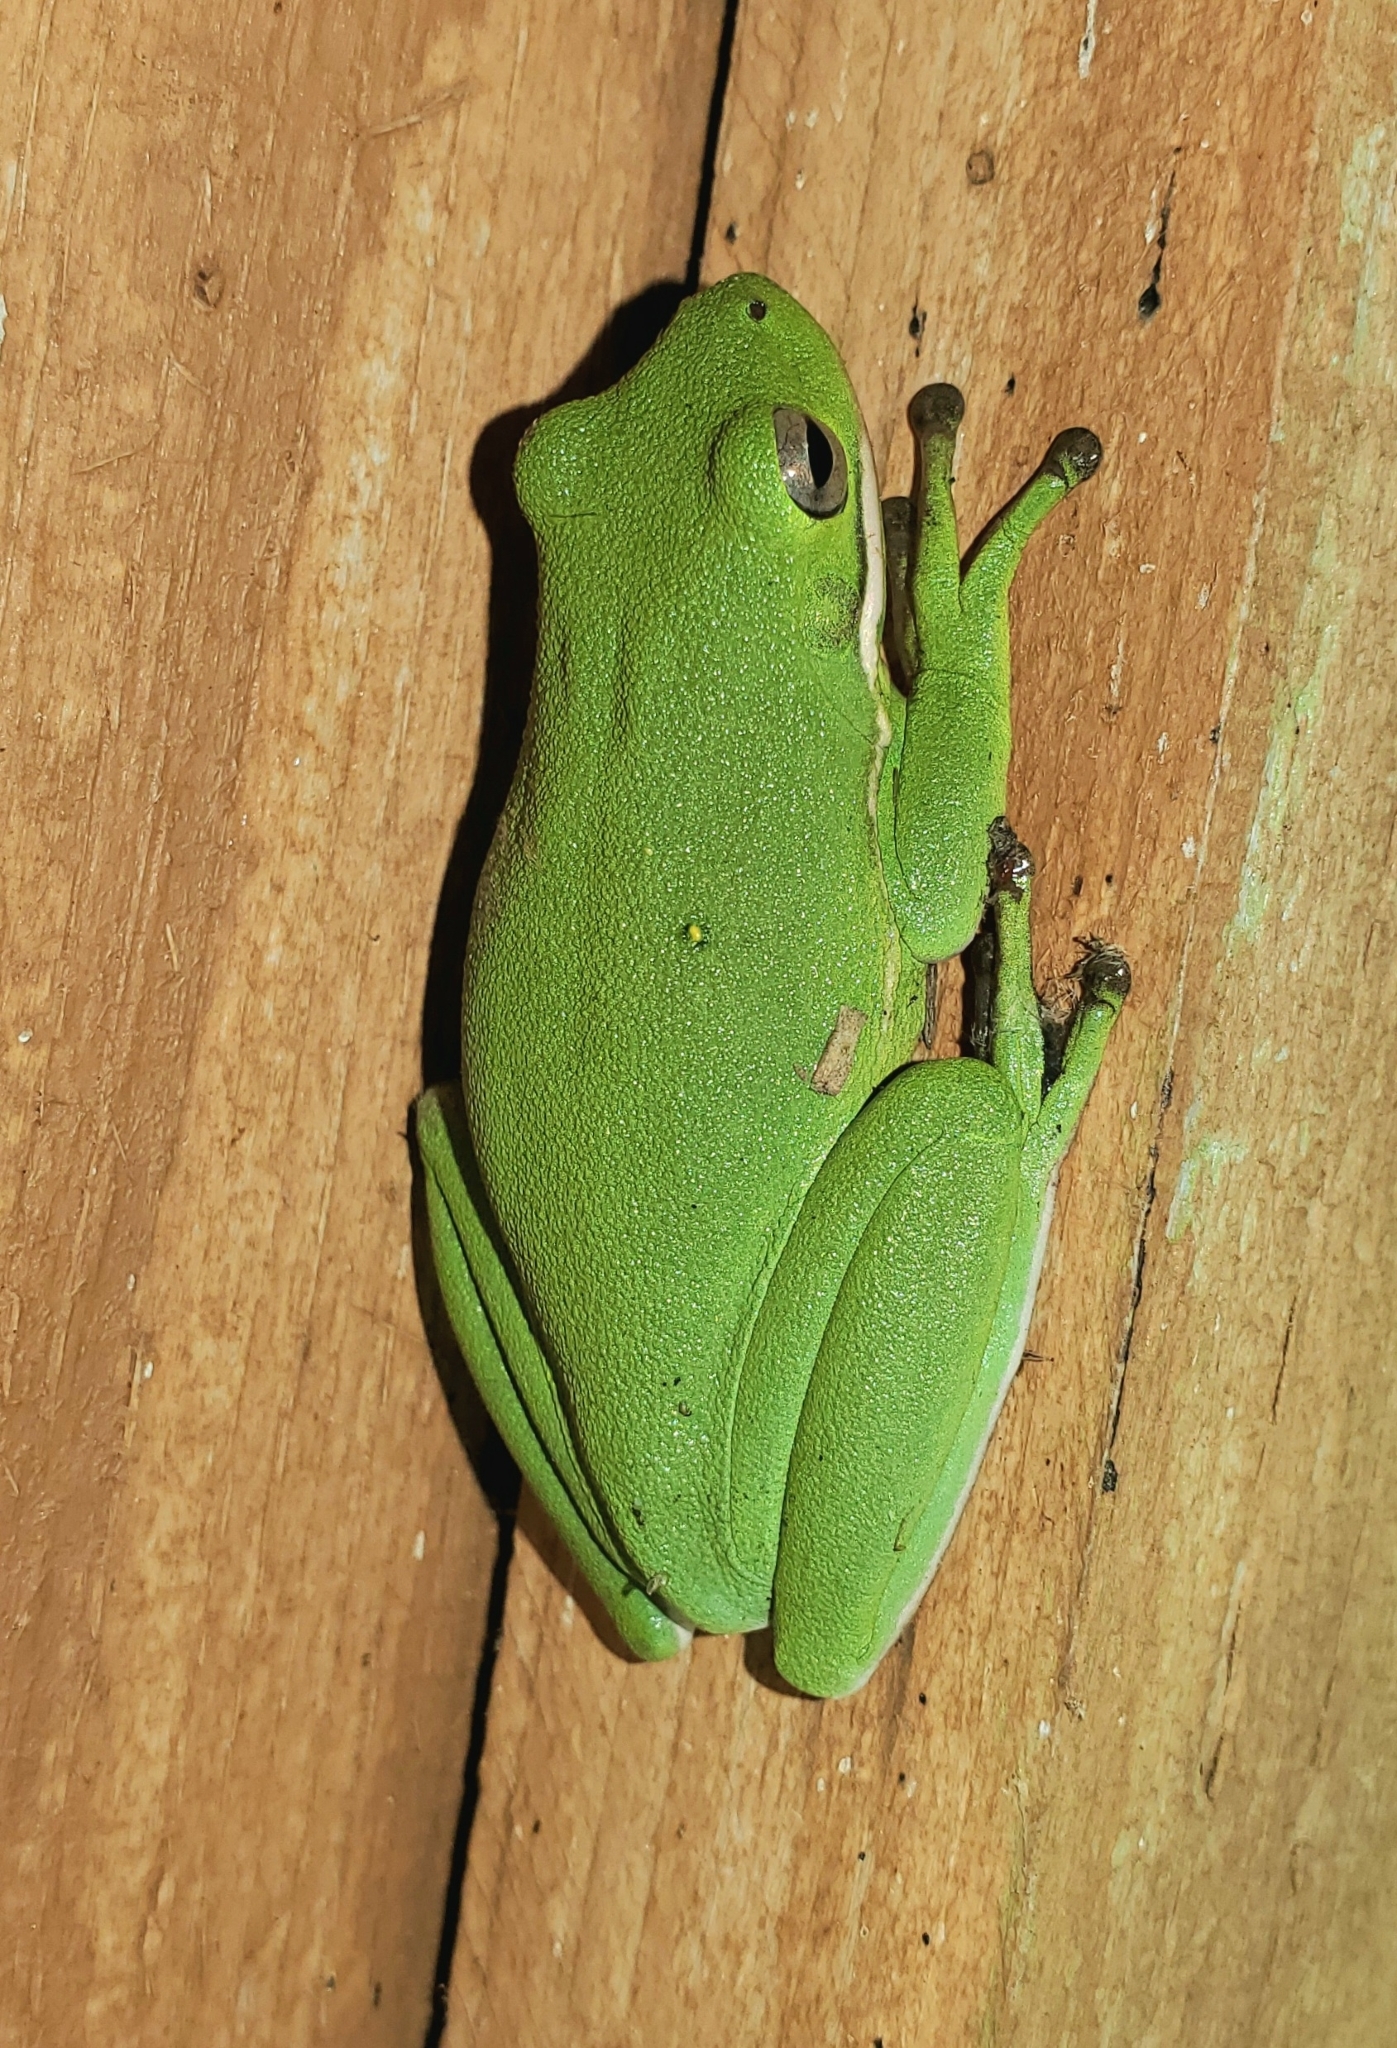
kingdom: Animalia
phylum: Chordata
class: Amphibia
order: Anura
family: Hylidae
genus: Dryophytes
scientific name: Dryophytes cinereus
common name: Green treefrog
